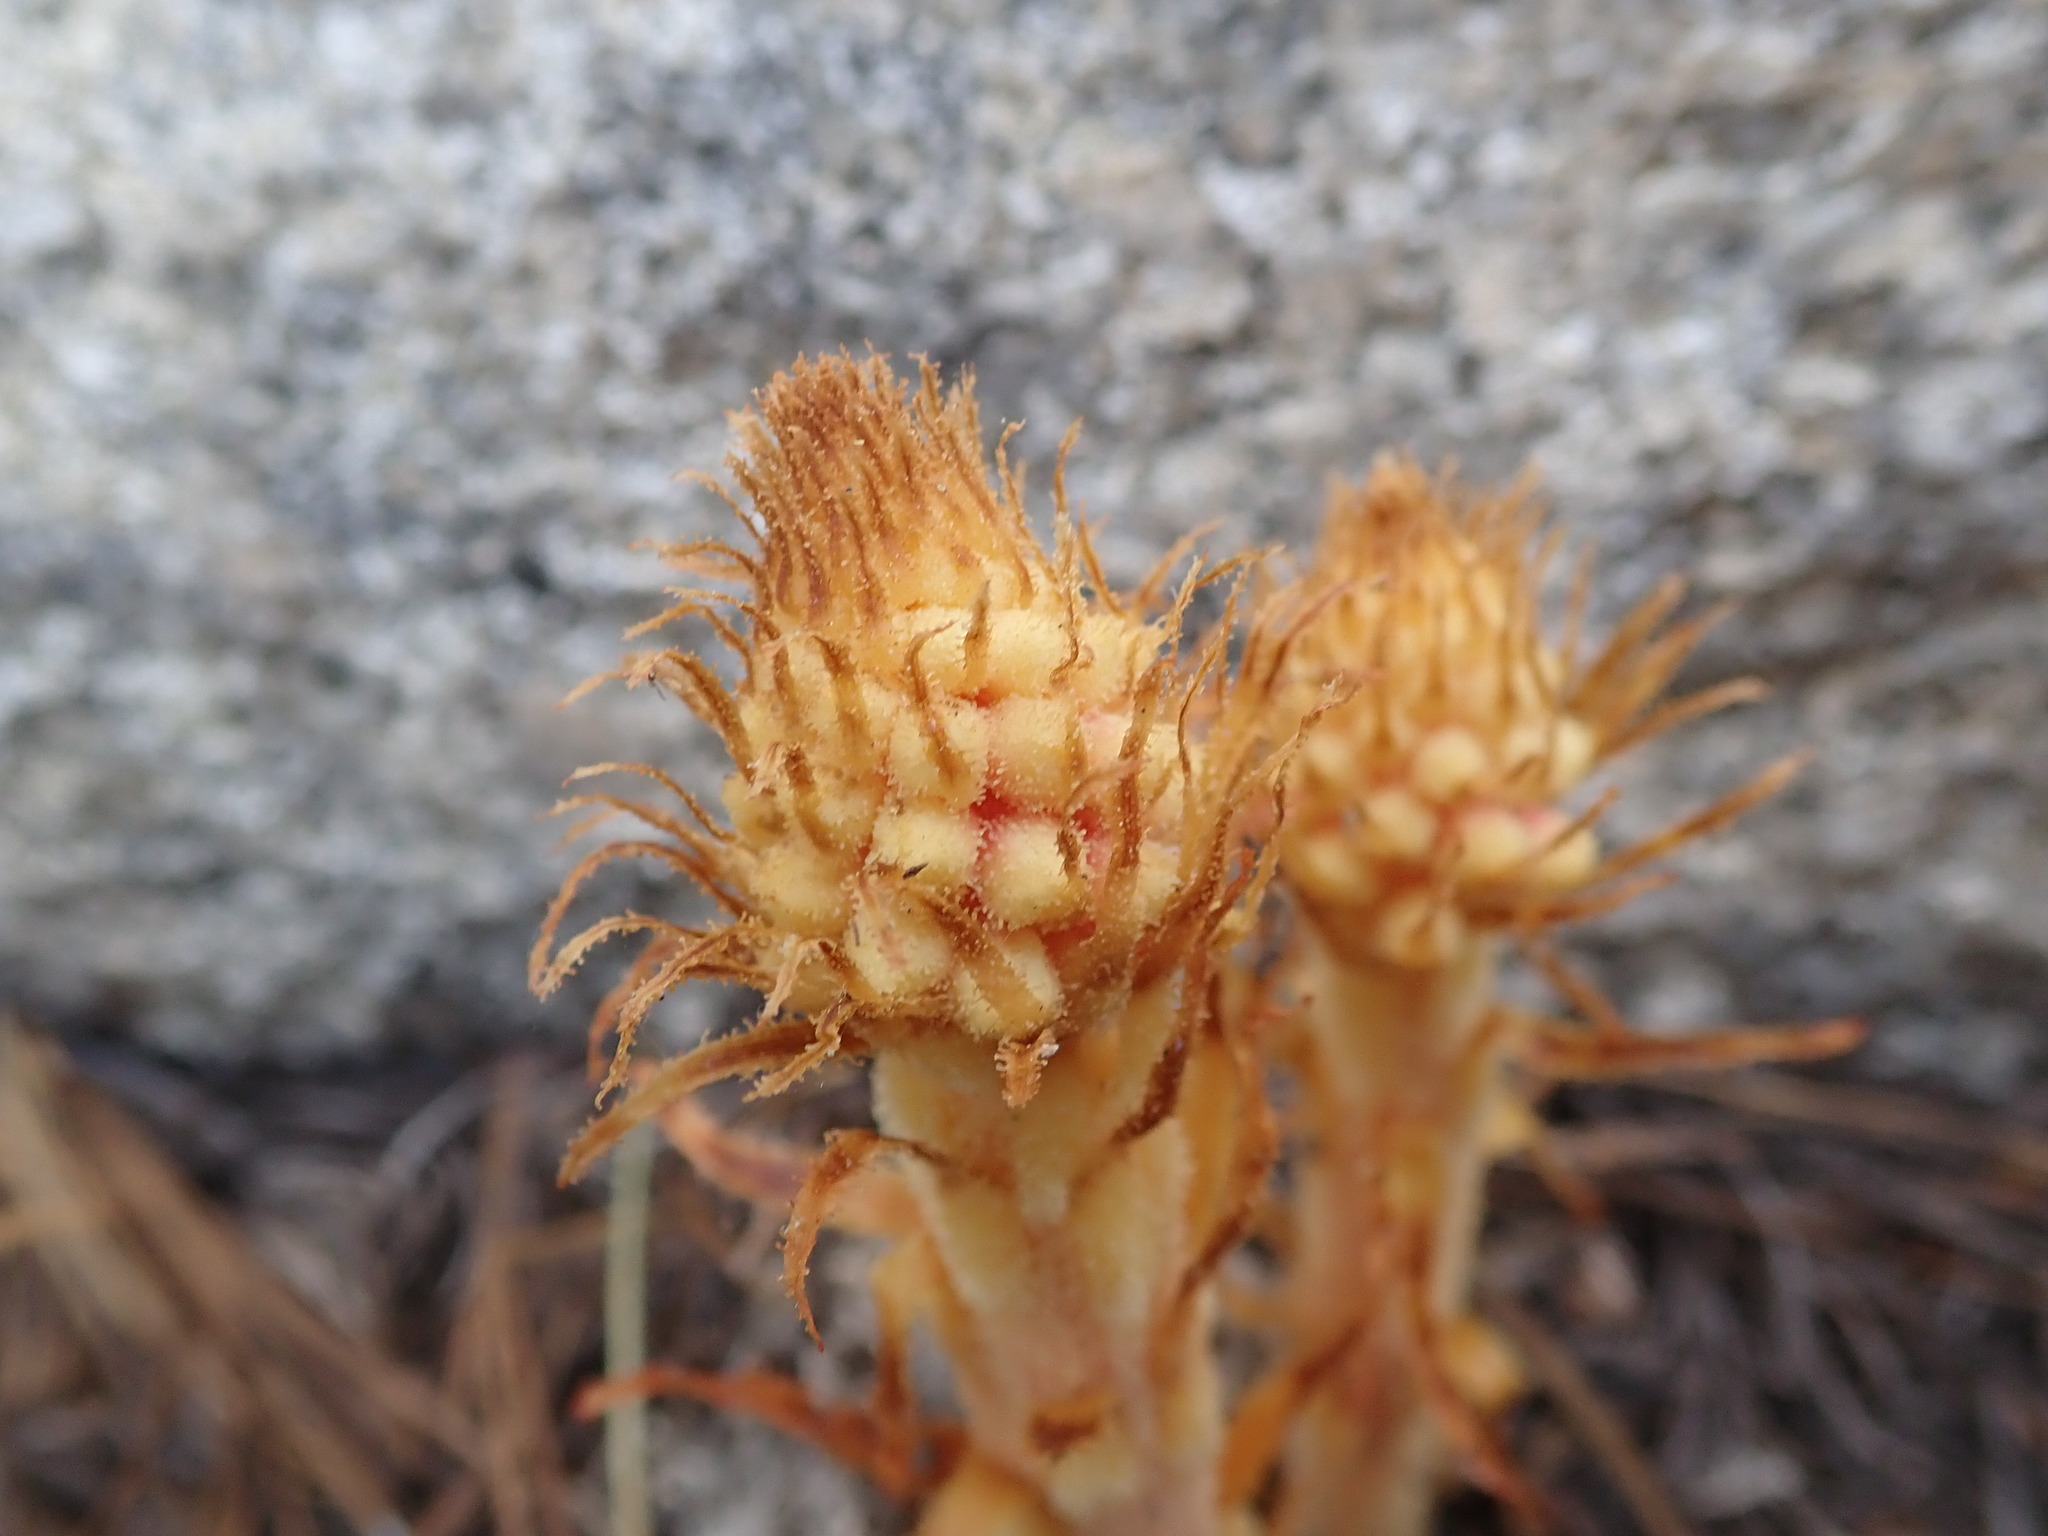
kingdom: Plantae
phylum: Tracheophyta
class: Magnoliopsida
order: Ericales
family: Ericaceae
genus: Pterospora
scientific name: Pterospora andromedea
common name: Giant bird's-nest
